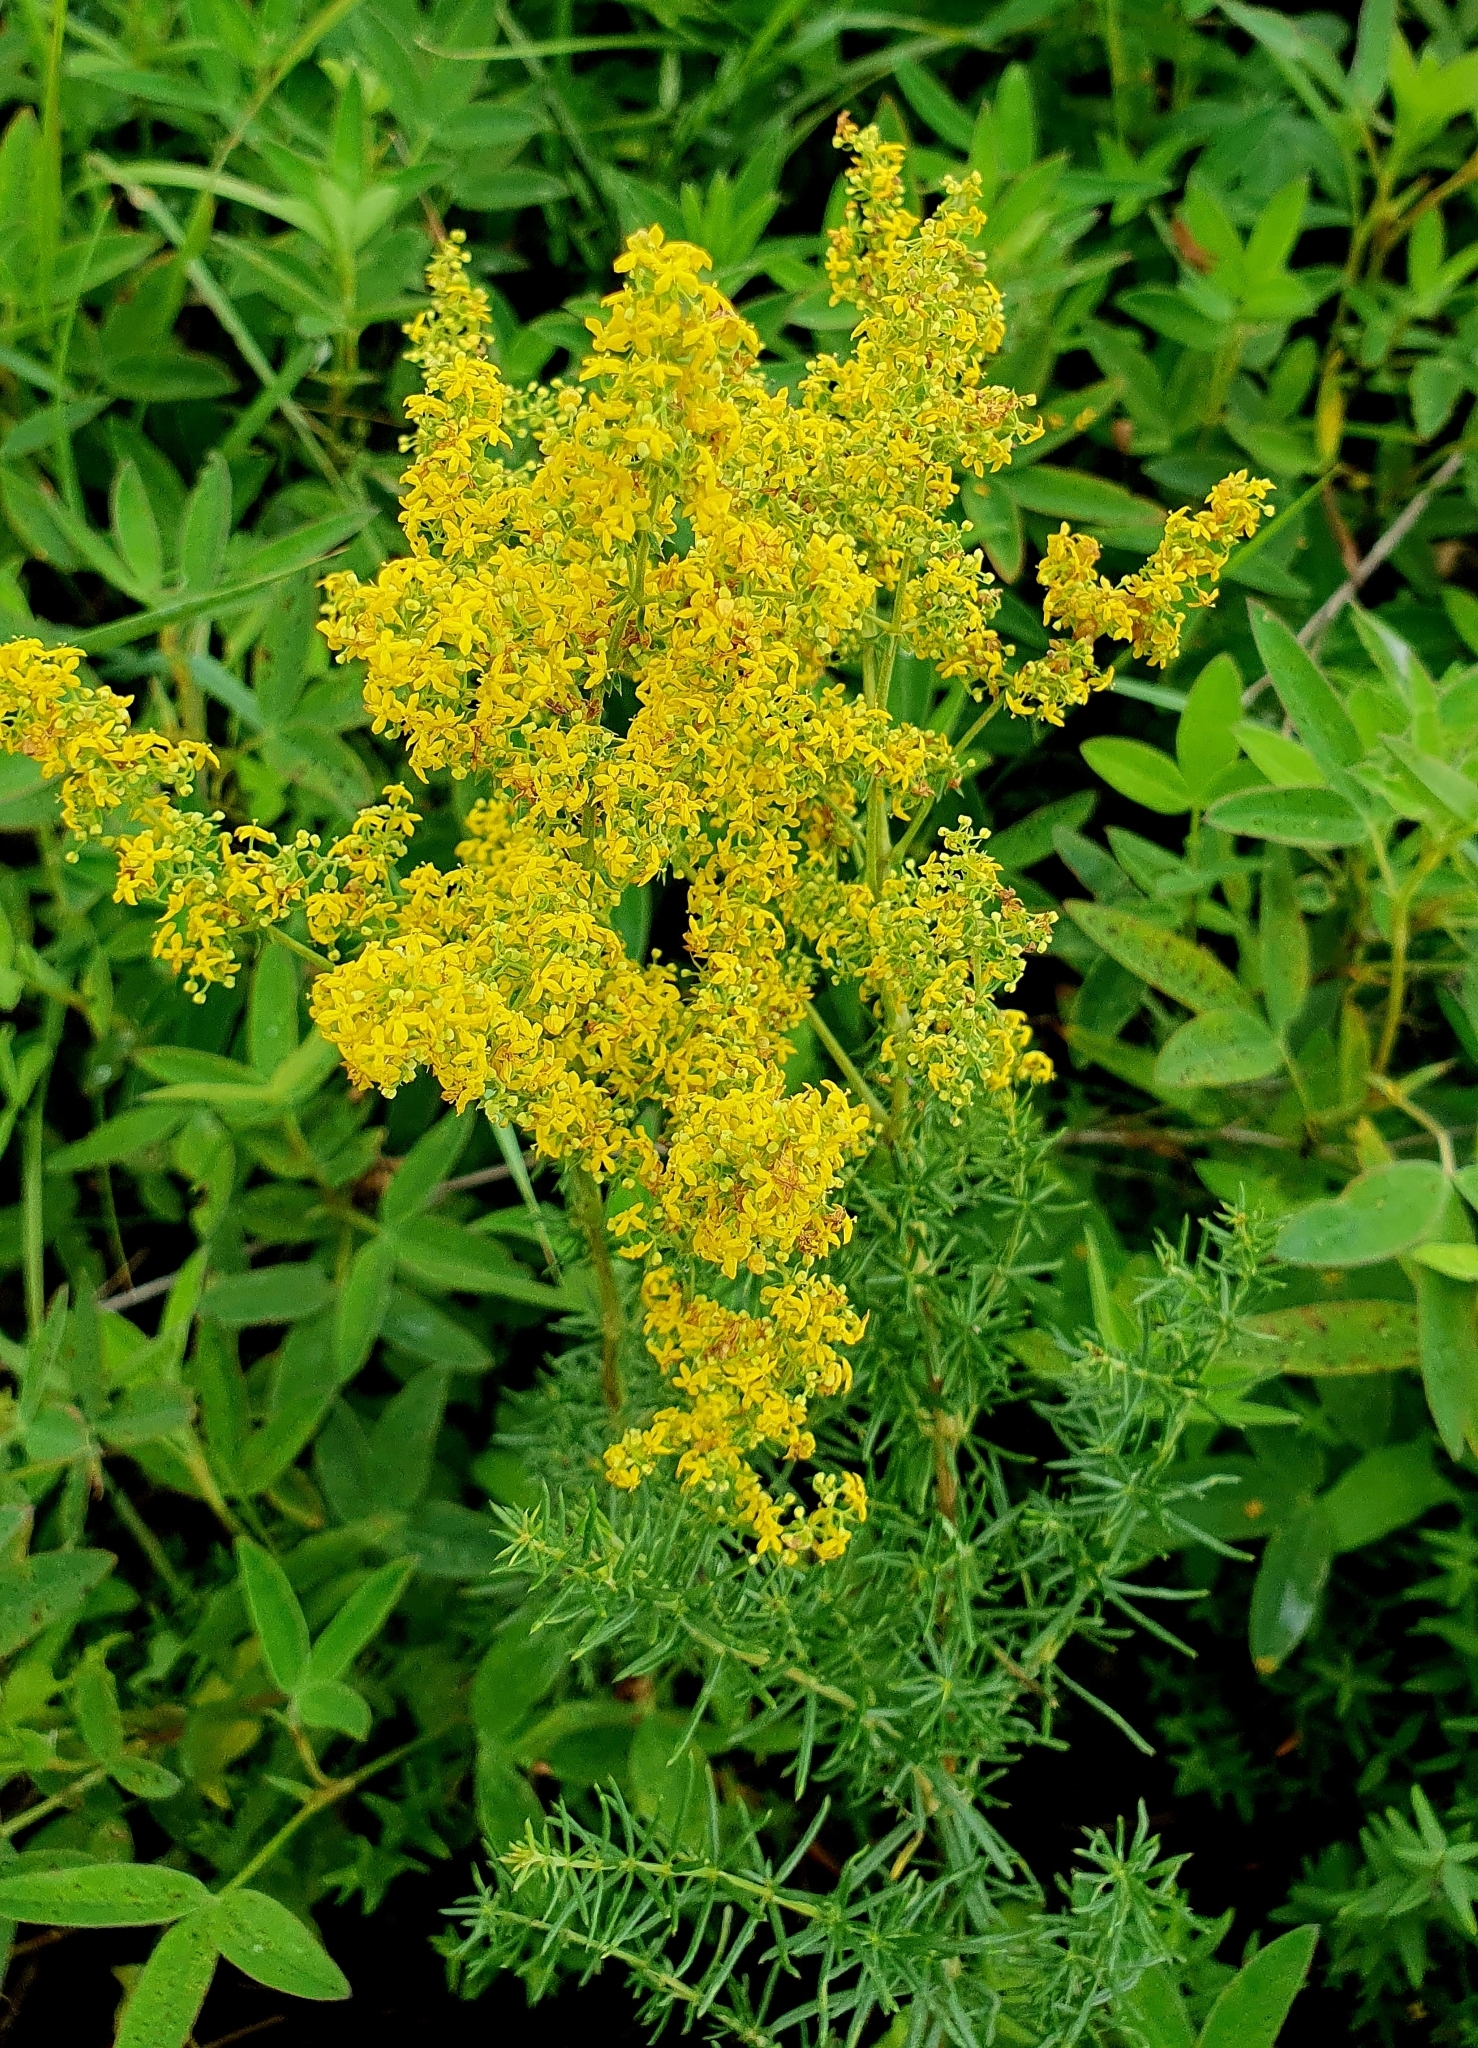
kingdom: Plantae
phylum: Tracheophyta
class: Magnoliopsida
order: Gentianales
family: Rubiaceae
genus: Galium
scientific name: Galium verum
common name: Lady's bedstraw
